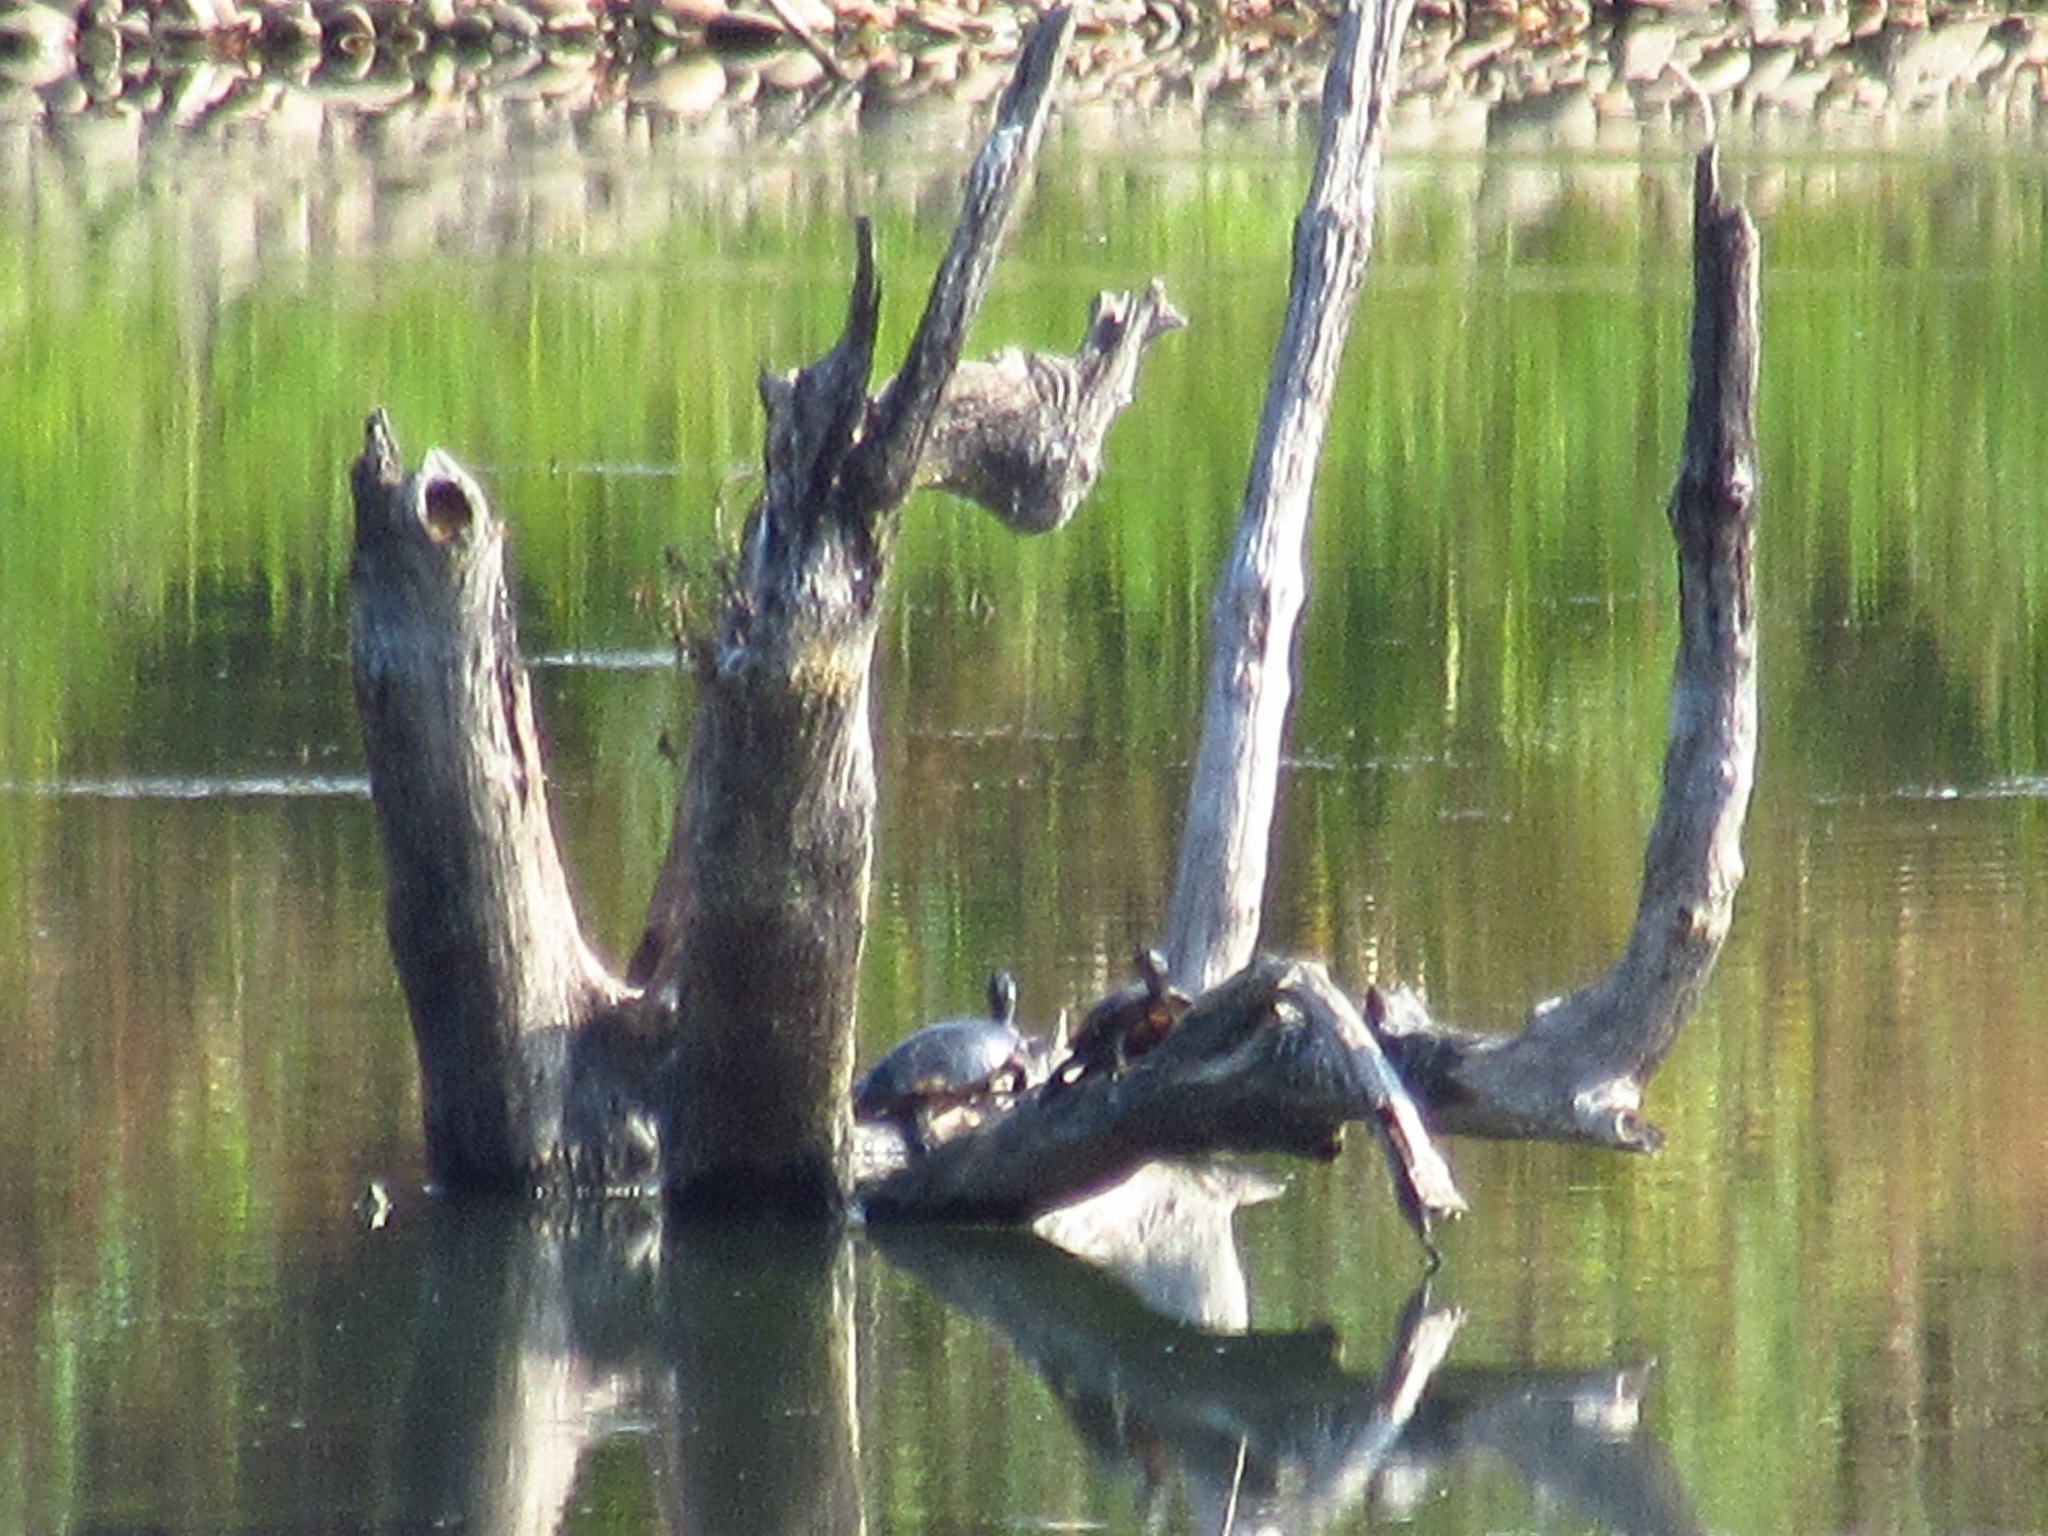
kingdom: Animalia
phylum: Chordata
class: Testudines
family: Emydidae
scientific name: Emydidae
